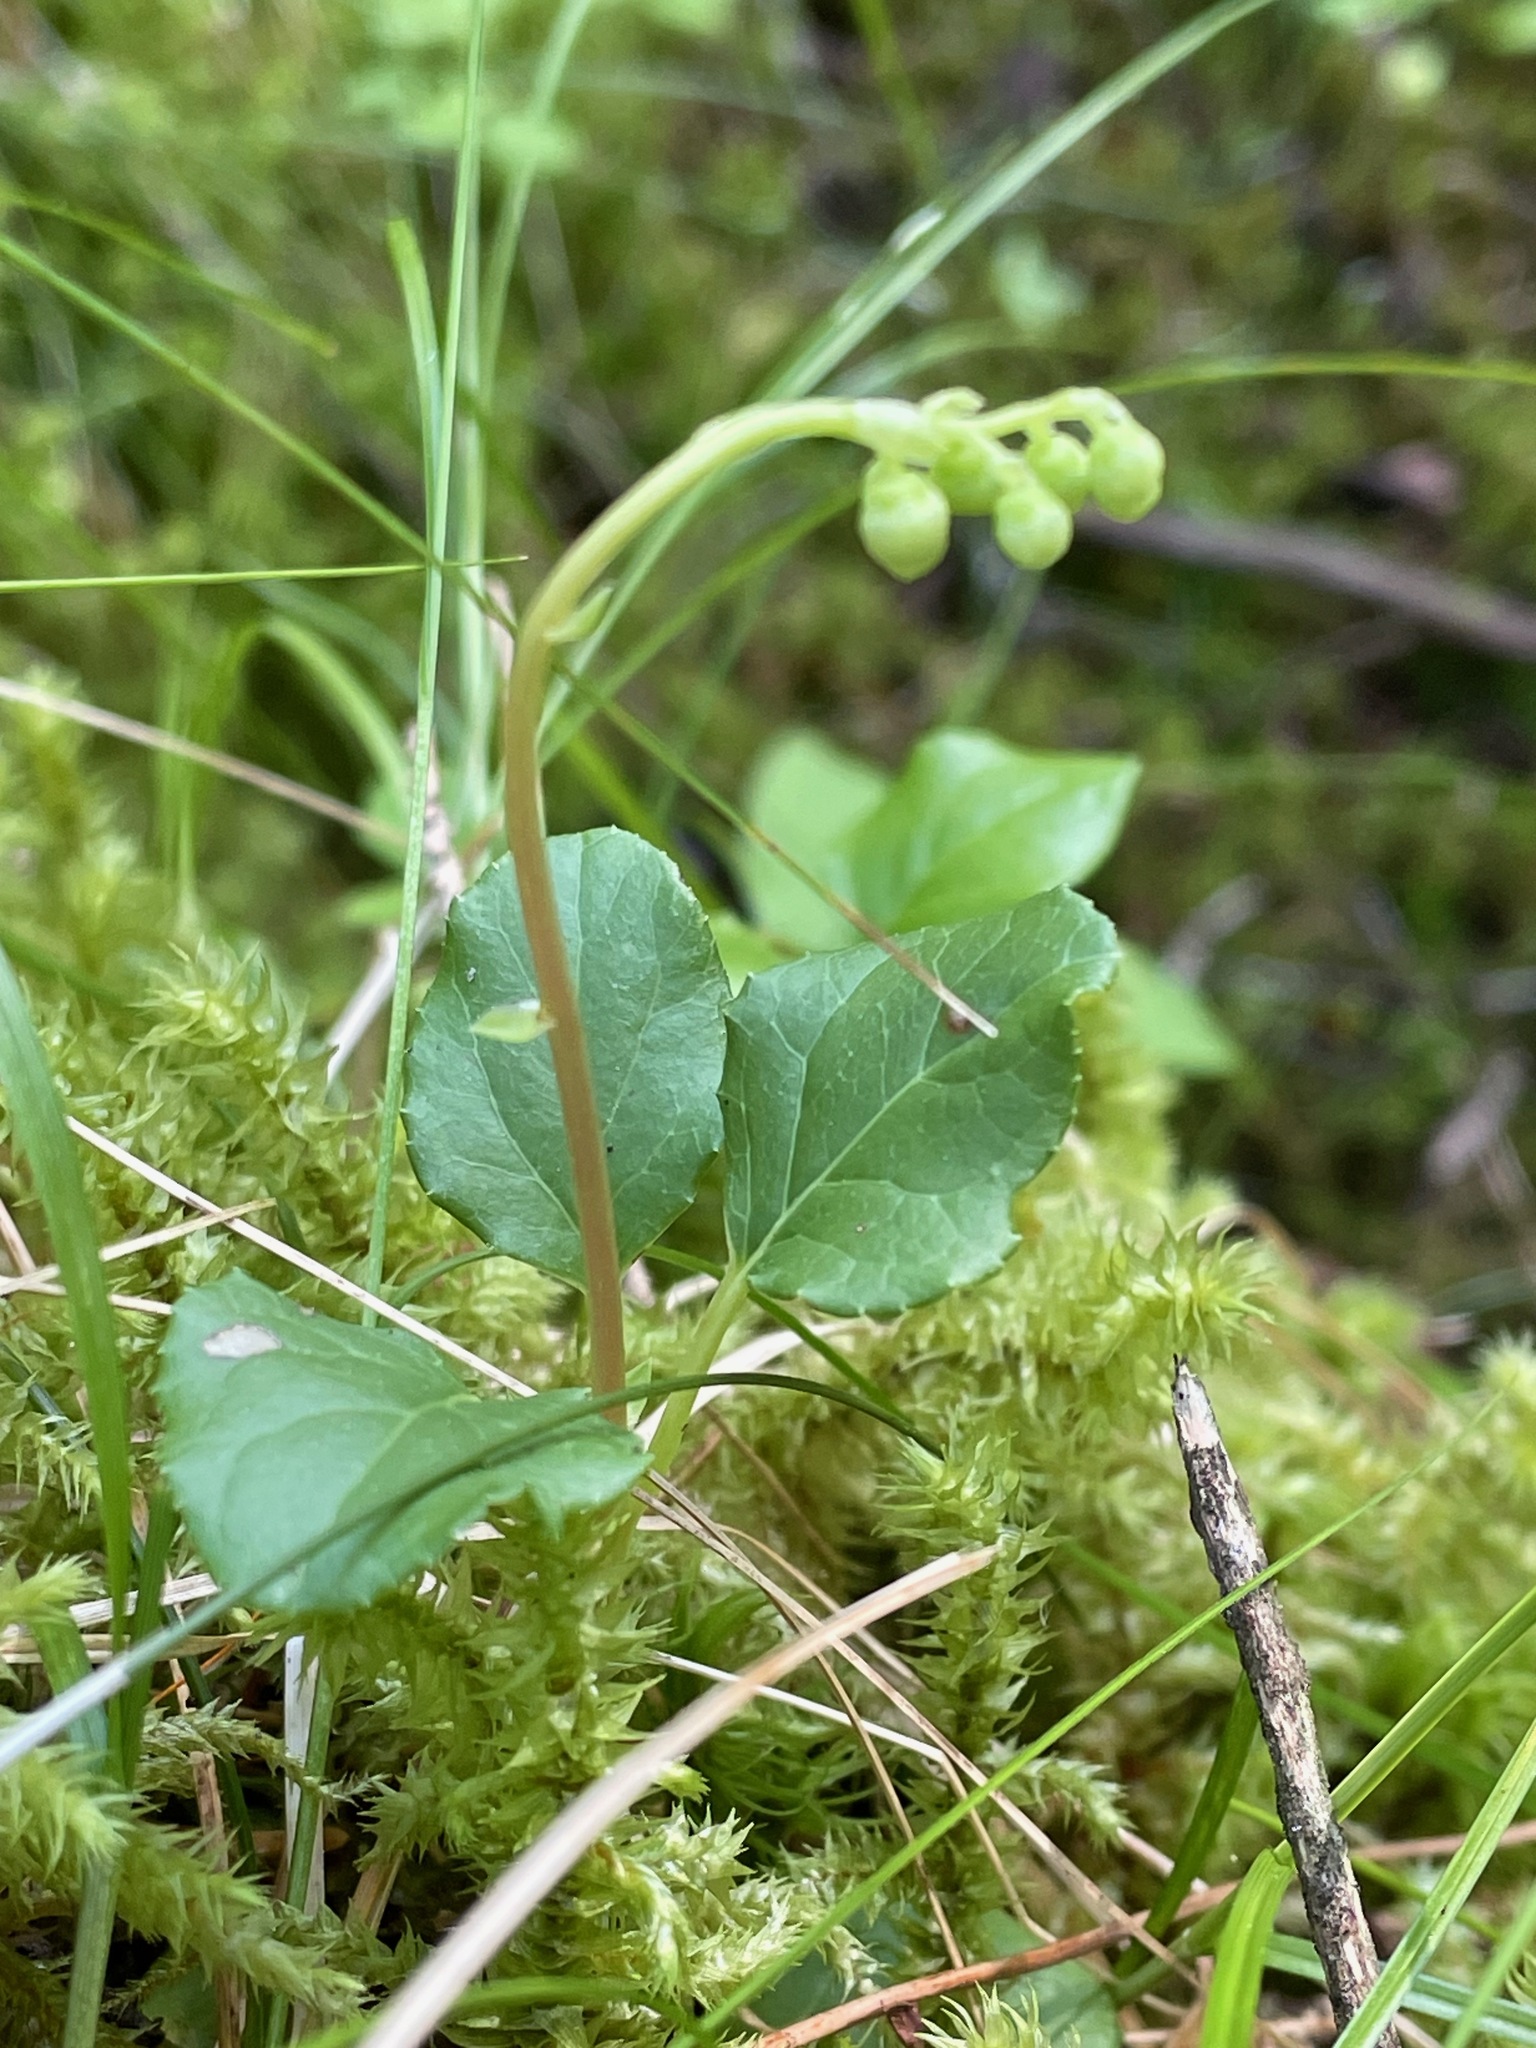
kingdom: Plantae
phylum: Tracheophyta
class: Magnoliopsida
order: Ericales
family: Ericaceae
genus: Orthilia
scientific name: Orthilia secunda
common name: One-sided orthilia
